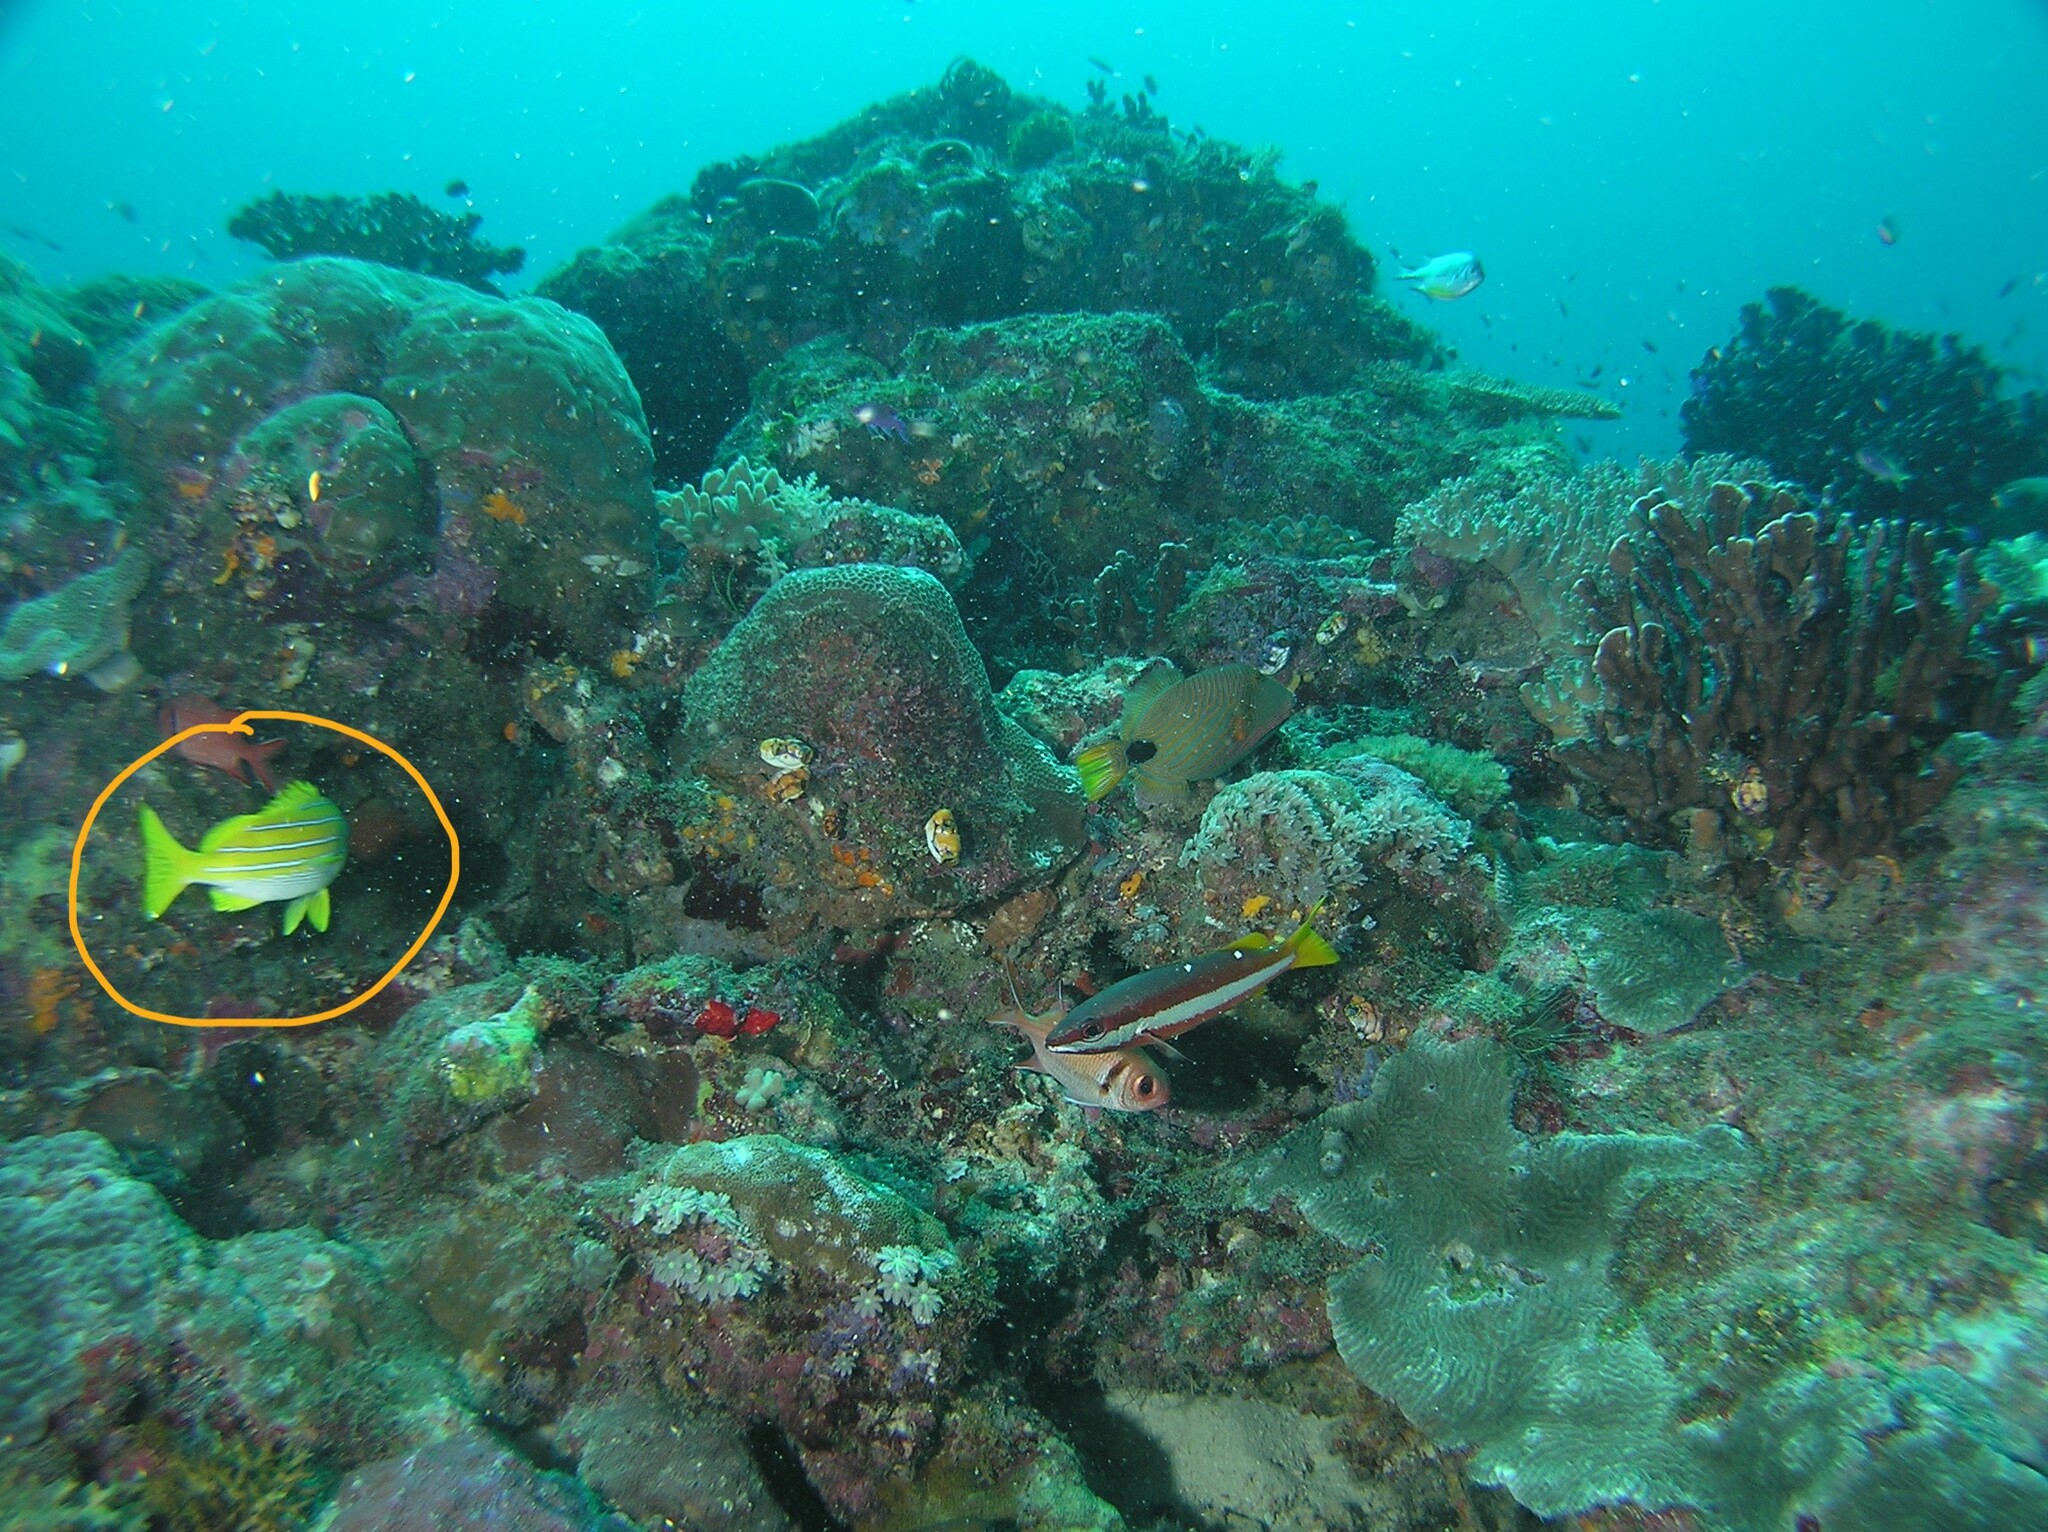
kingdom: Animalia
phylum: Chordata
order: Perciformes
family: Lutjanidae
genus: Lutjanus
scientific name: Lutjanus kasmira
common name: Common bluestripe snapper
